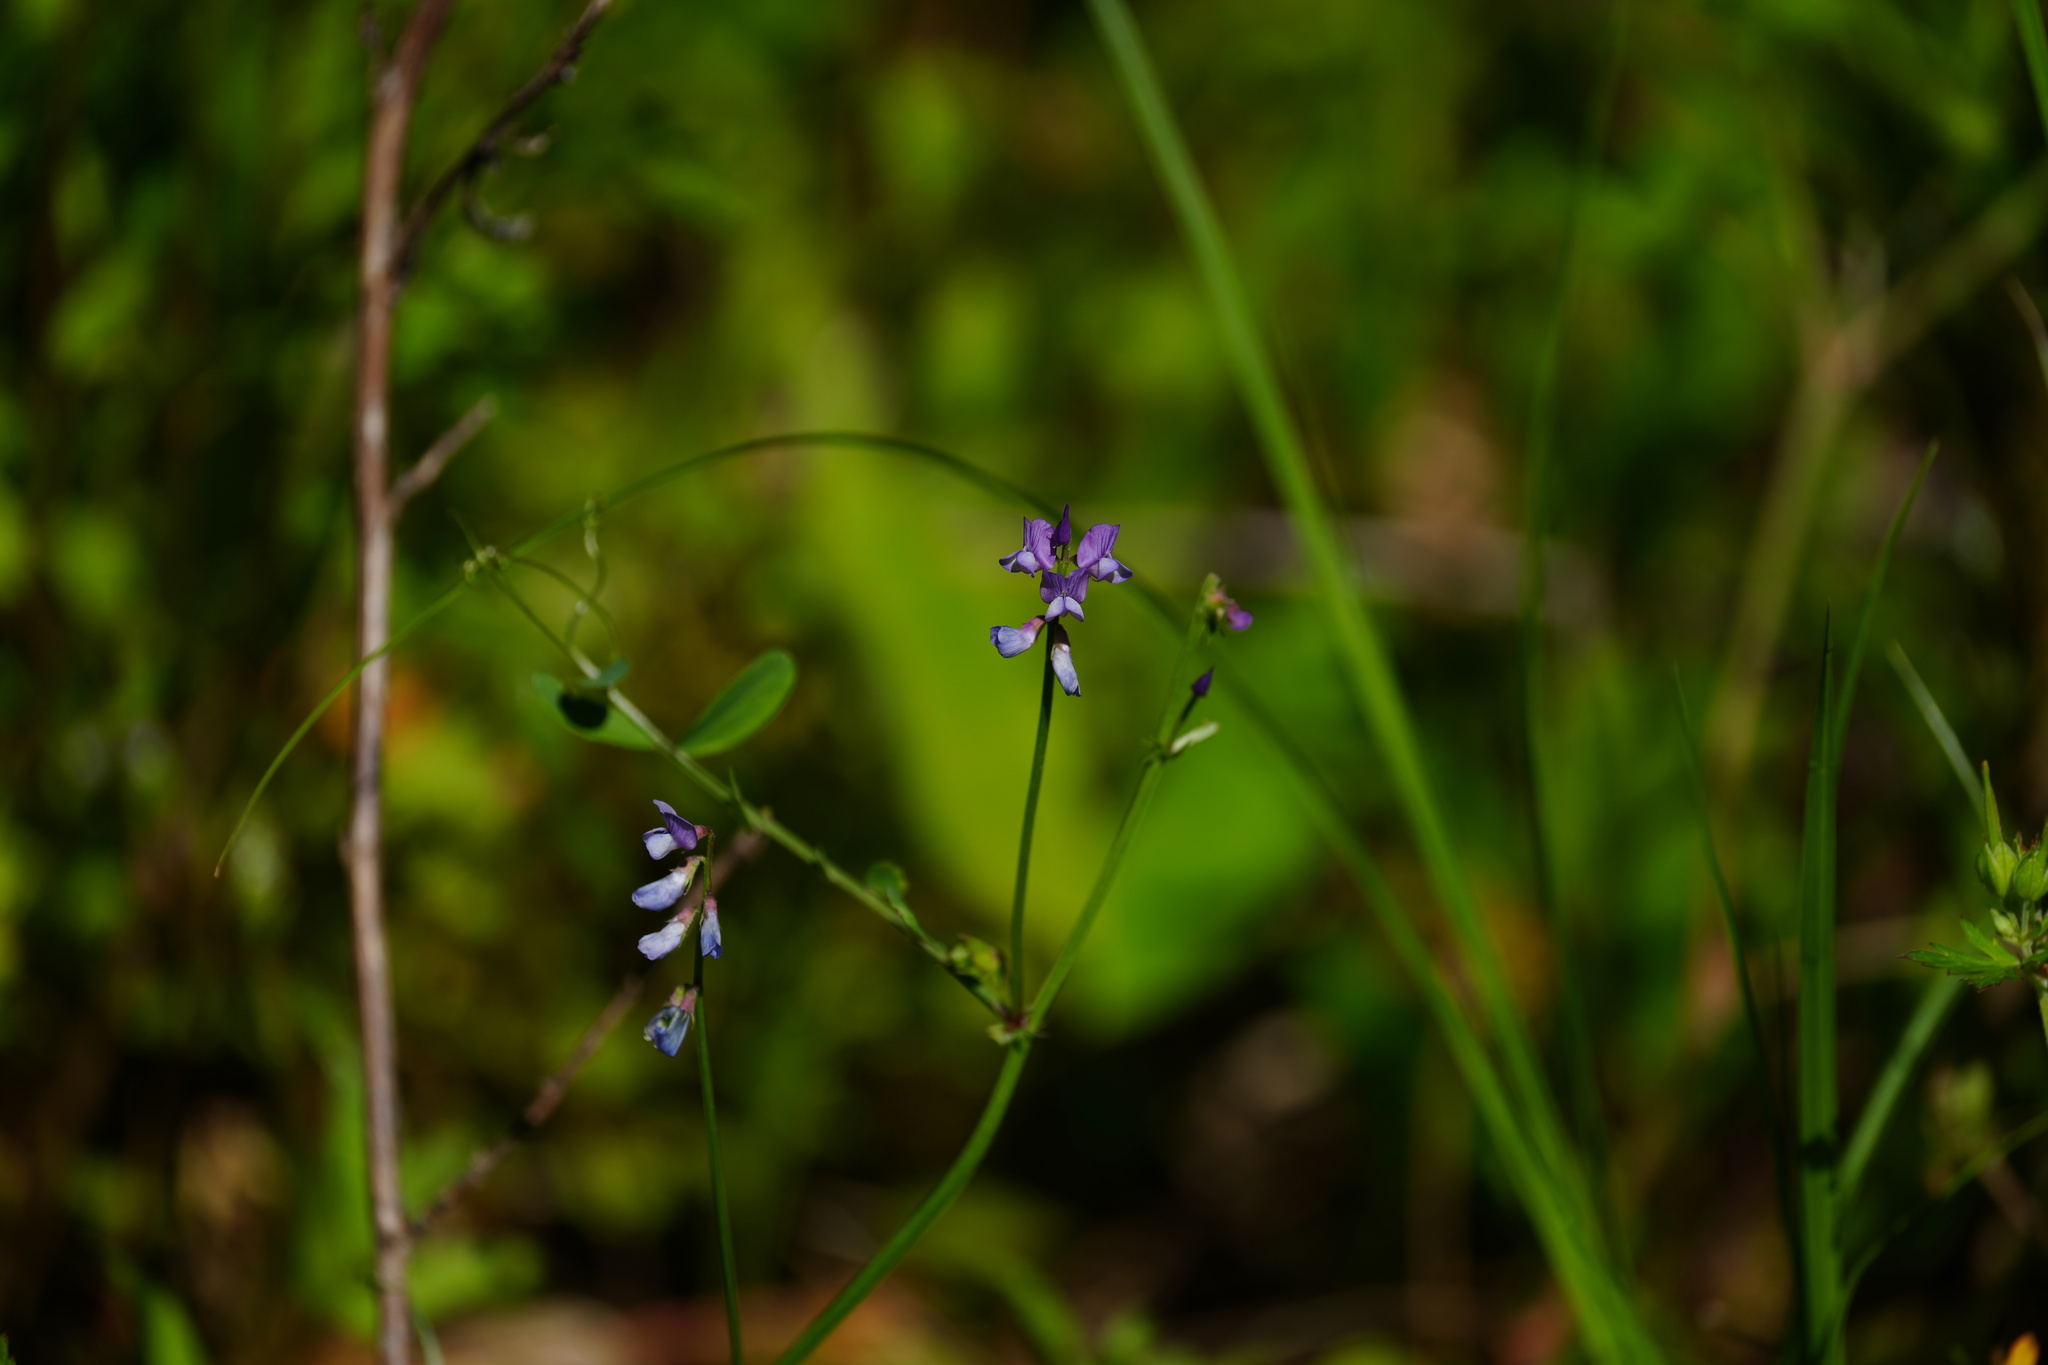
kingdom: Plantae
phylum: Tracheophyta
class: Magnoliopsida
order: Fabales
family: Fabaceae
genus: Vicia
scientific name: Vicia ludoviciana
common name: Louisiana vetch
